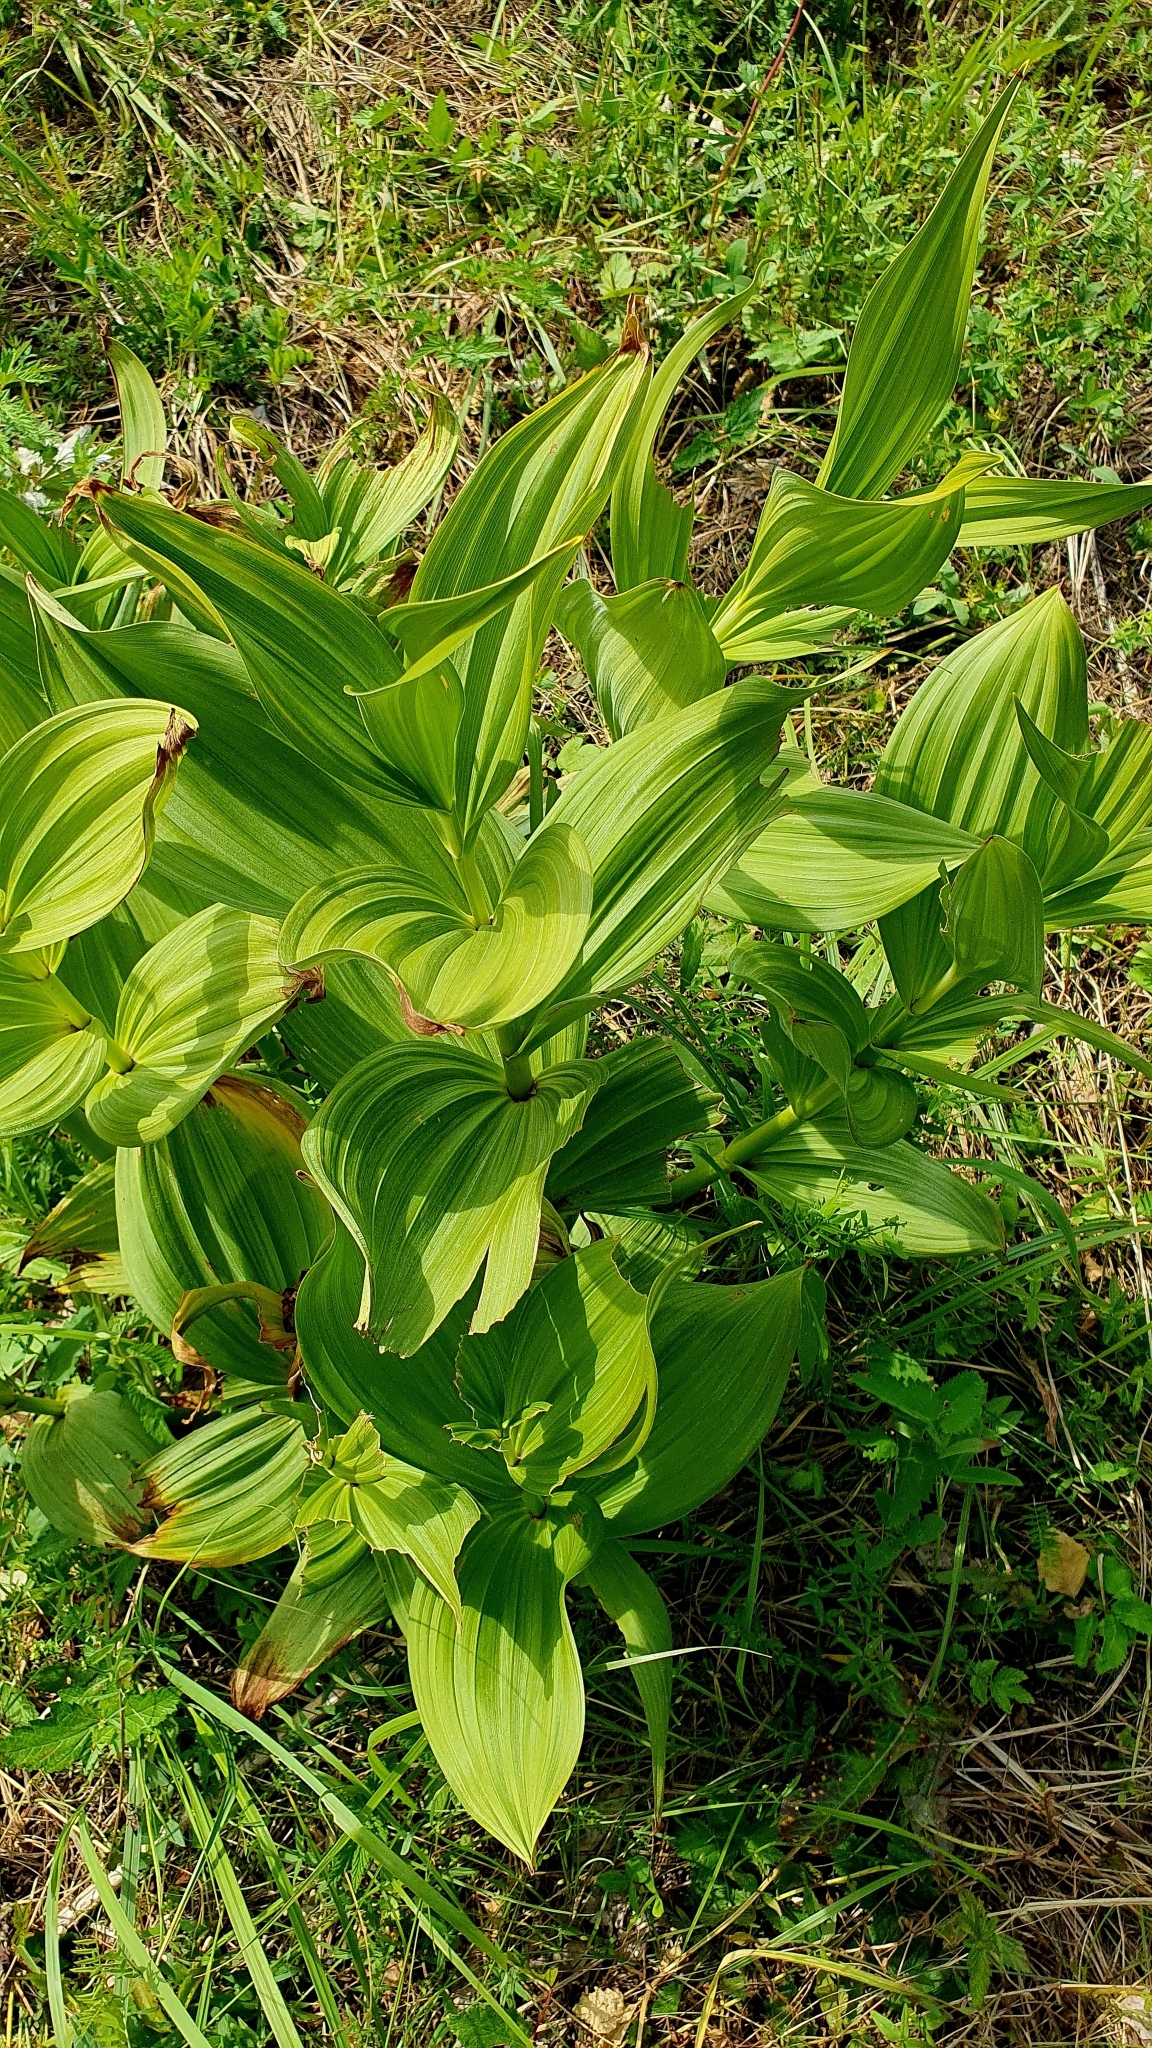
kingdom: Plantae
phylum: Tracheophyta
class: Liliopsida
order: Liliales
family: Melanthiaceae
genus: Veratrum
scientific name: Veratrum lobelianum
